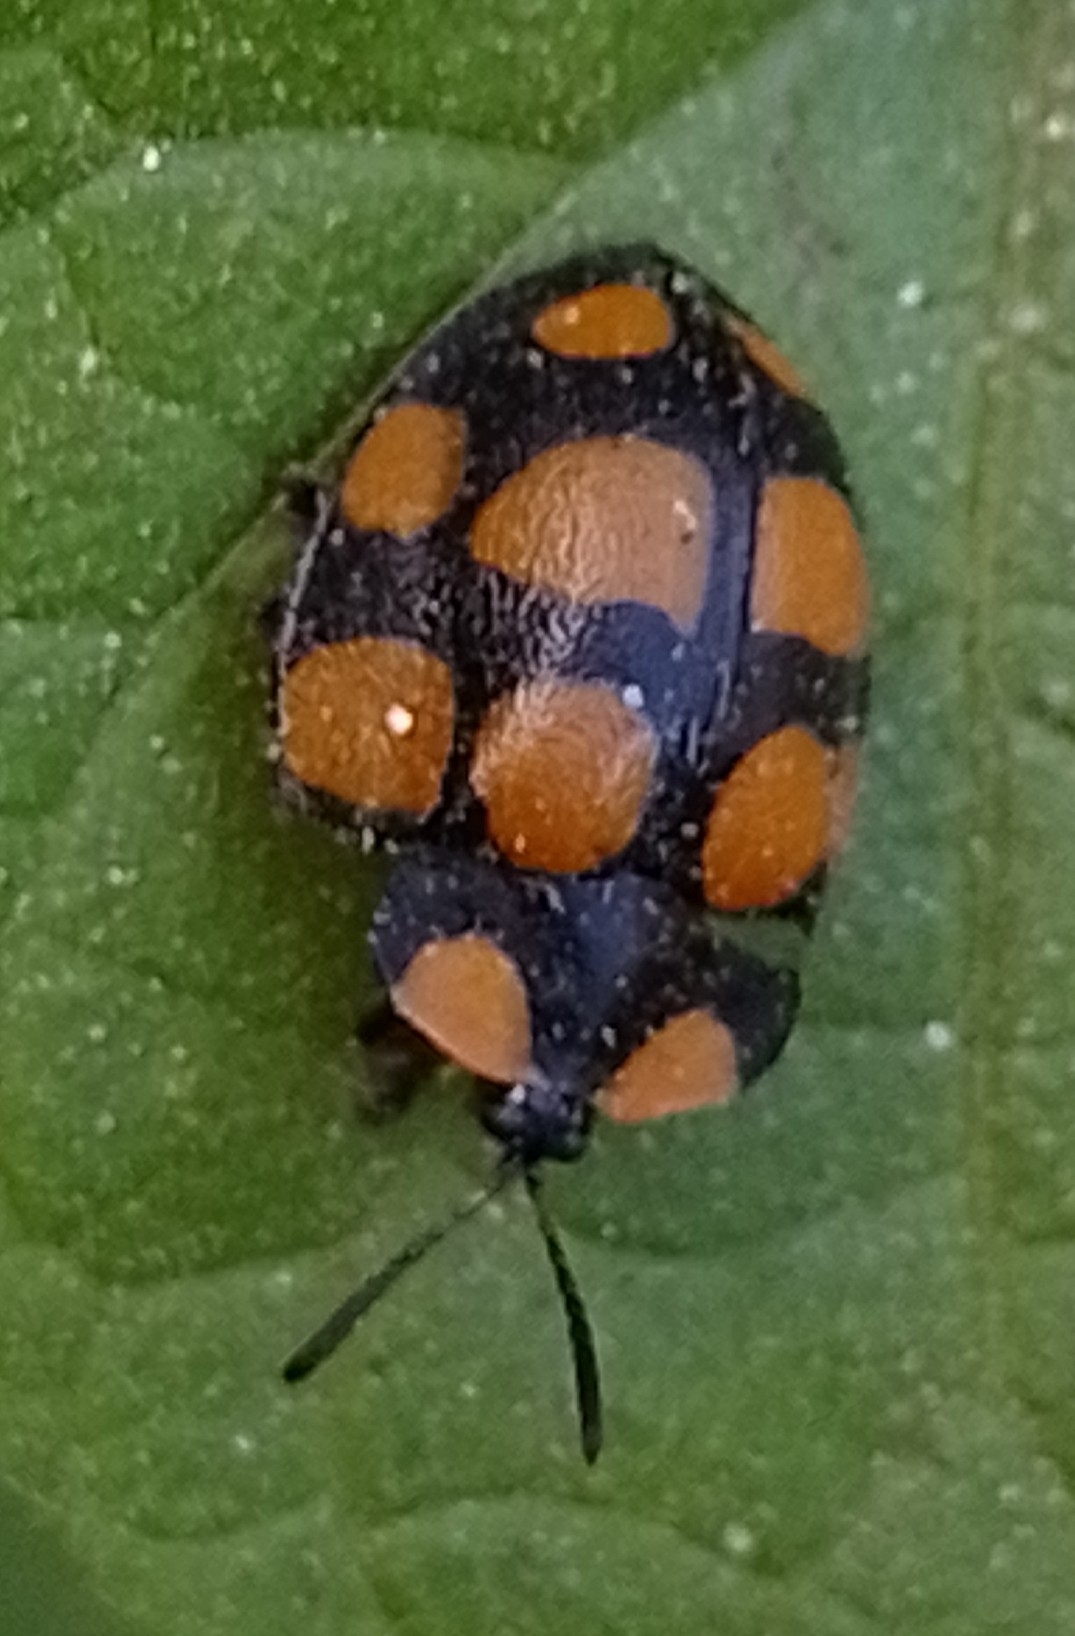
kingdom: Animalia
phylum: Arthropoda
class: Insecta
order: Coleoptera
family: Chrysomelidae
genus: Botanochara
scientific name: Botanochara decempustulata
